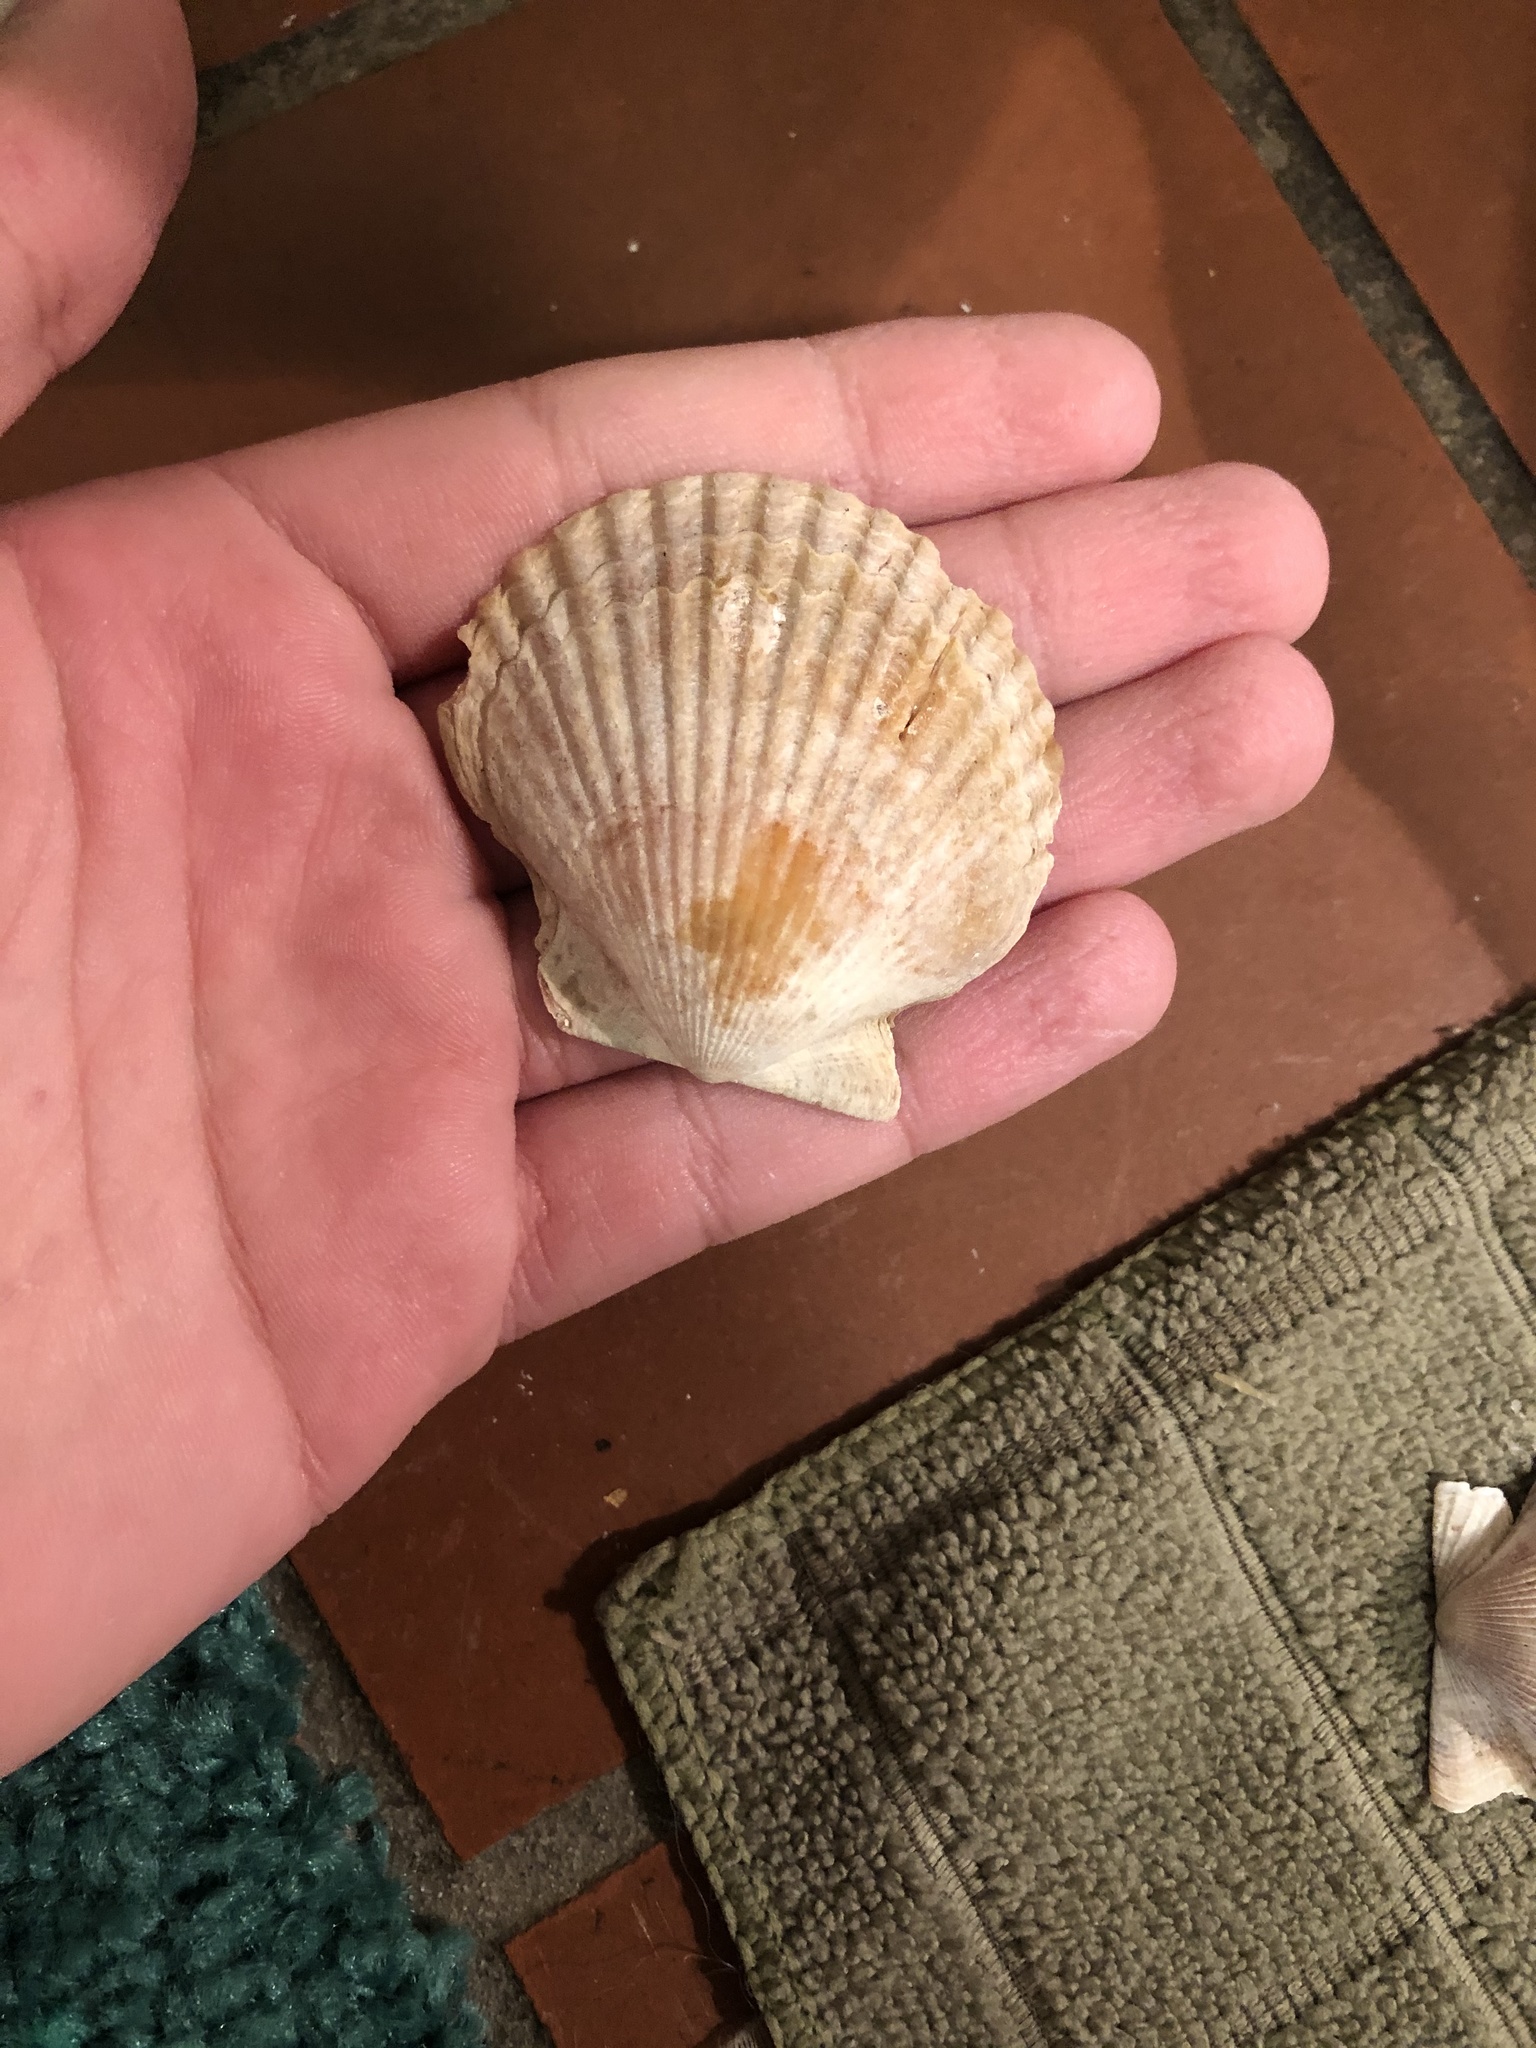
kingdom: Animalia
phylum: Mollusca
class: Bivalvia
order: Pectinida
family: Pectinidae
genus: Argopecten
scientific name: Argopecten ventricosus
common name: Catarina scallop
